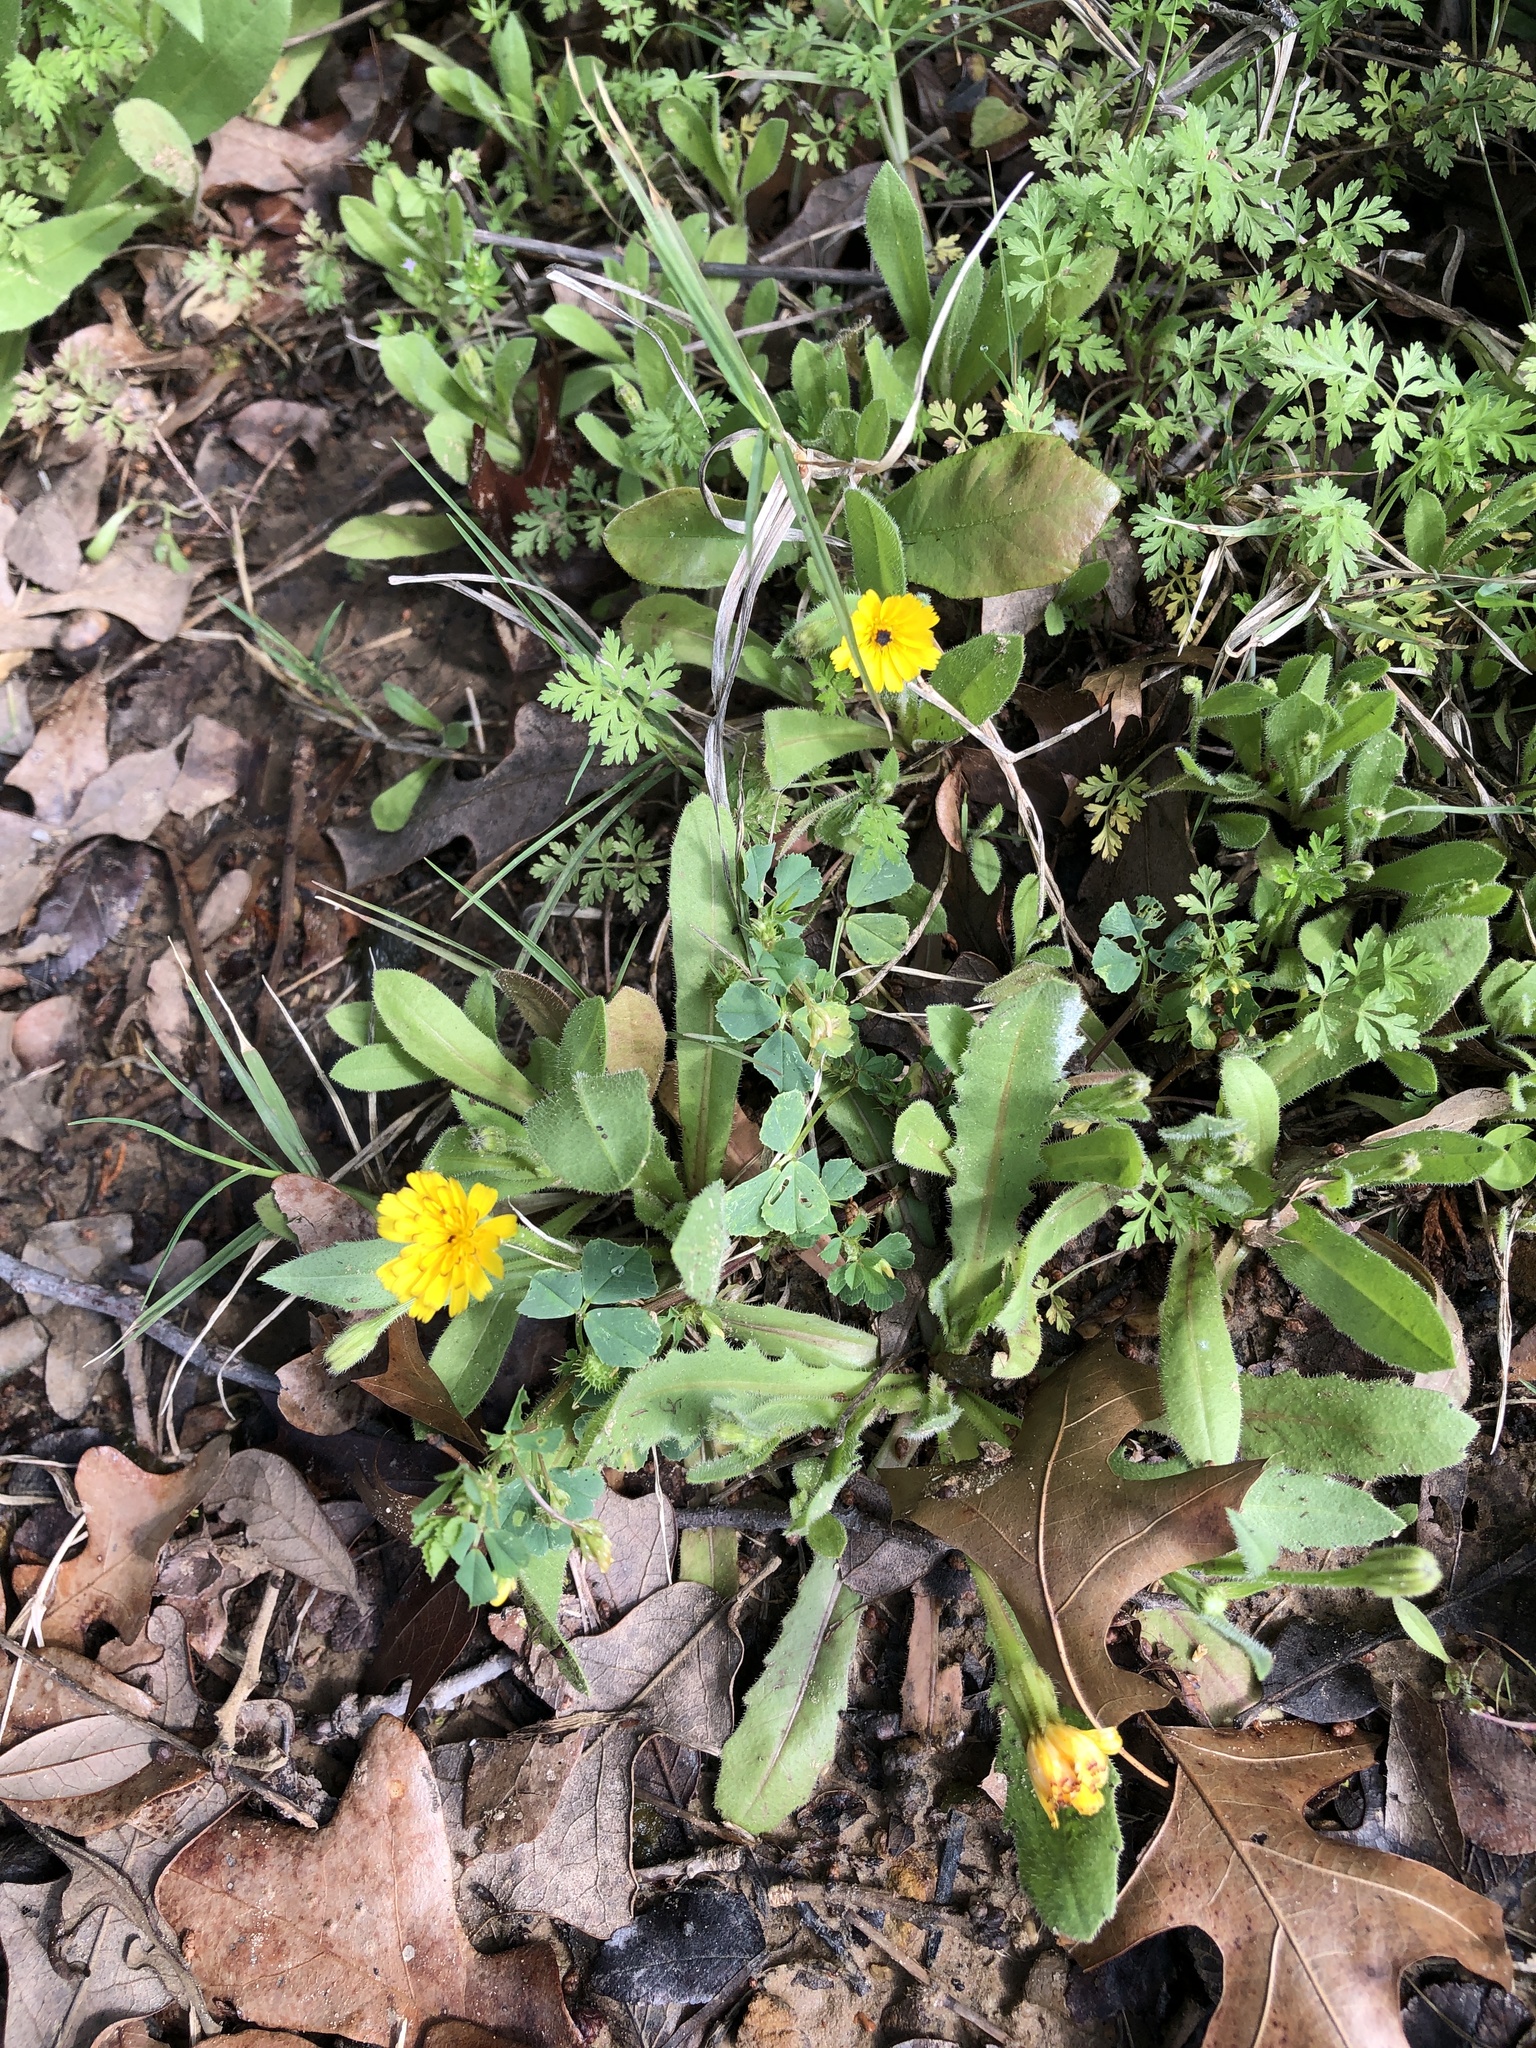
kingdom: Plantae
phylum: Tracheophyta
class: Magnoliopsida
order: Asterales
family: Asteraceae
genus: Hedypnois
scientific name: Hedypnois rhagadioloides
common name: Cretan weed
